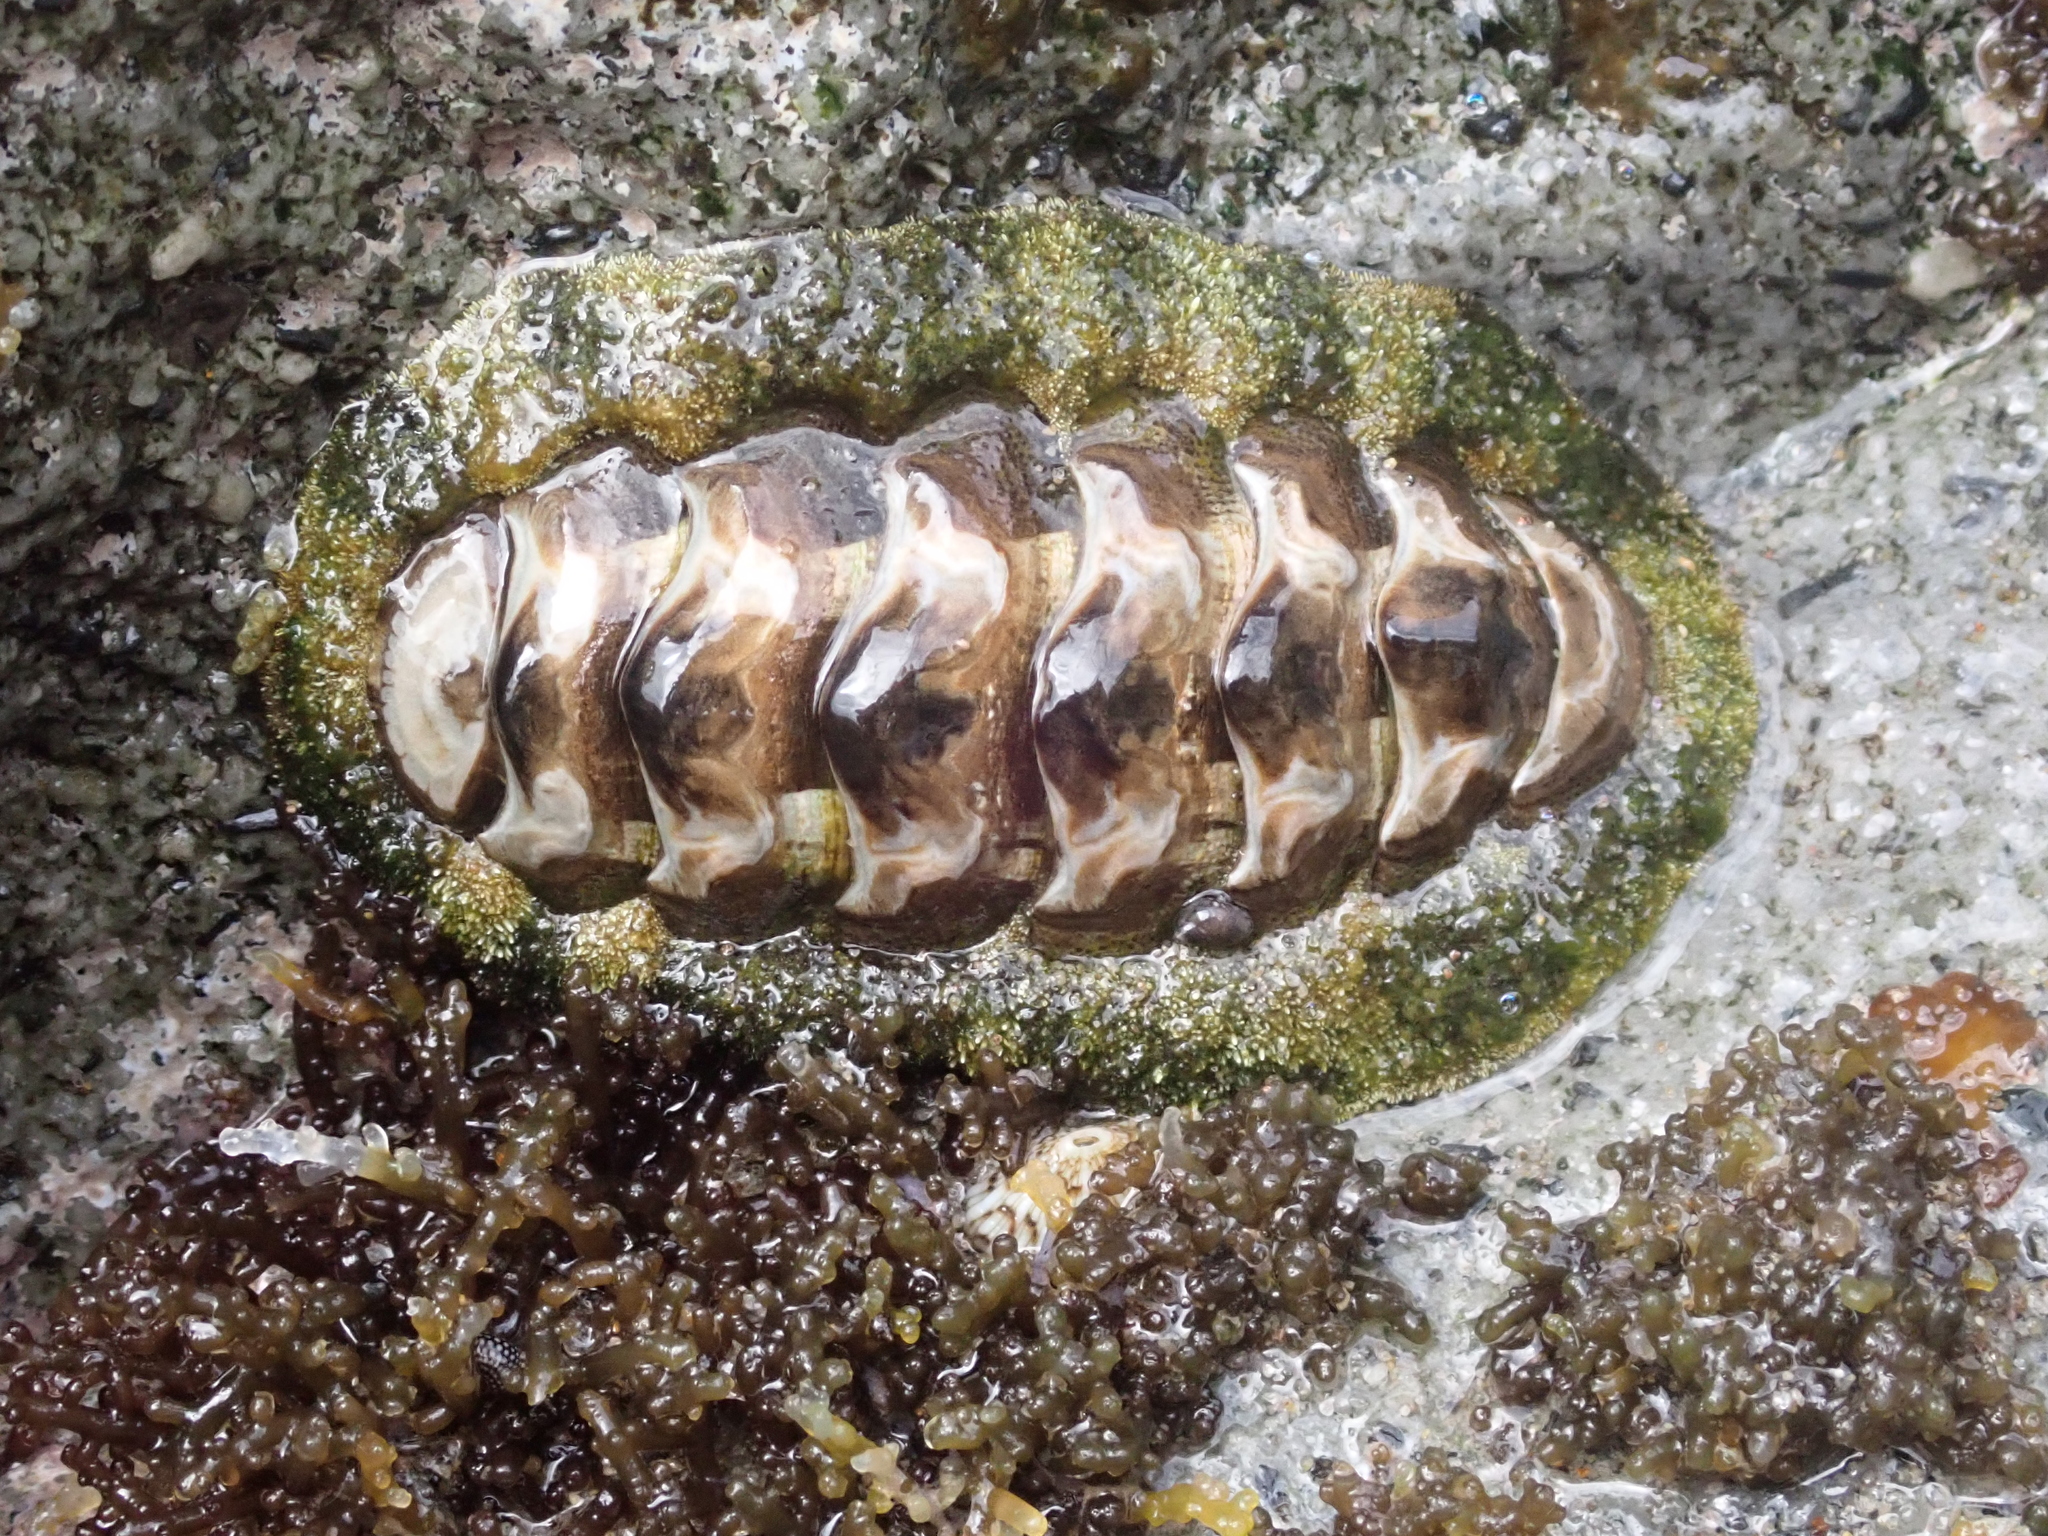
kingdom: Animalia
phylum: Mollusca
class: Polyplacophora
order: Chitonida
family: Chitonidae
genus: Acanthopleura
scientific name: Acanthopleura granulata
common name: West indian fuzzy chiton
